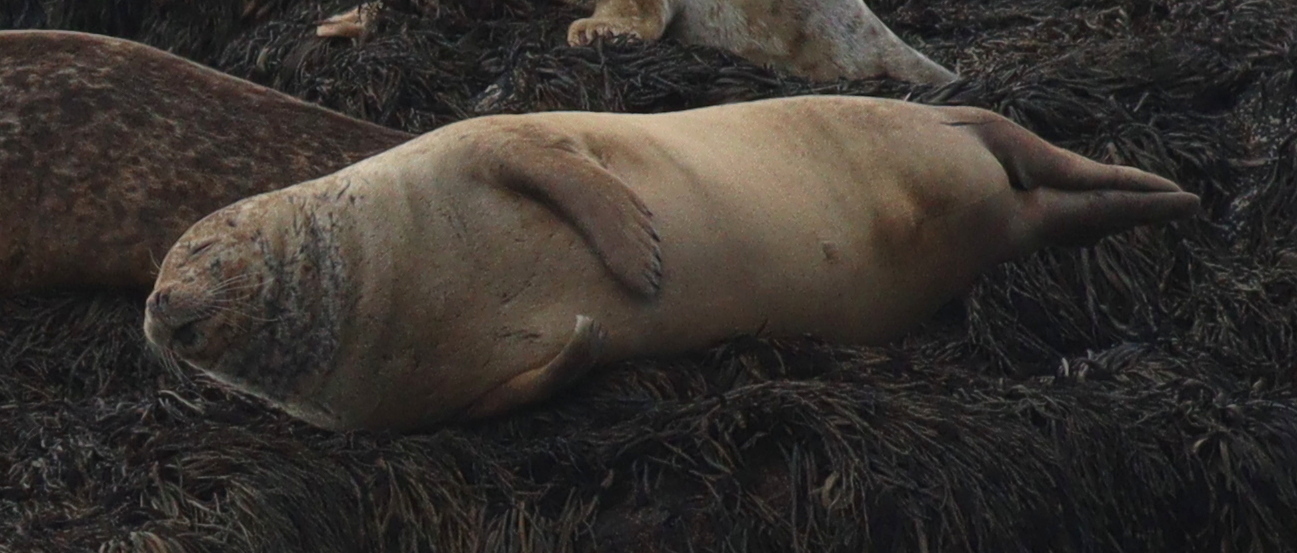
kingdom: Animalia
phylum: Chordata
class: Mammalia
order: Carnivora
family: Phocidae
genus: Phoca
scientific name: Phoca vitulina
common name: Harbor seal
